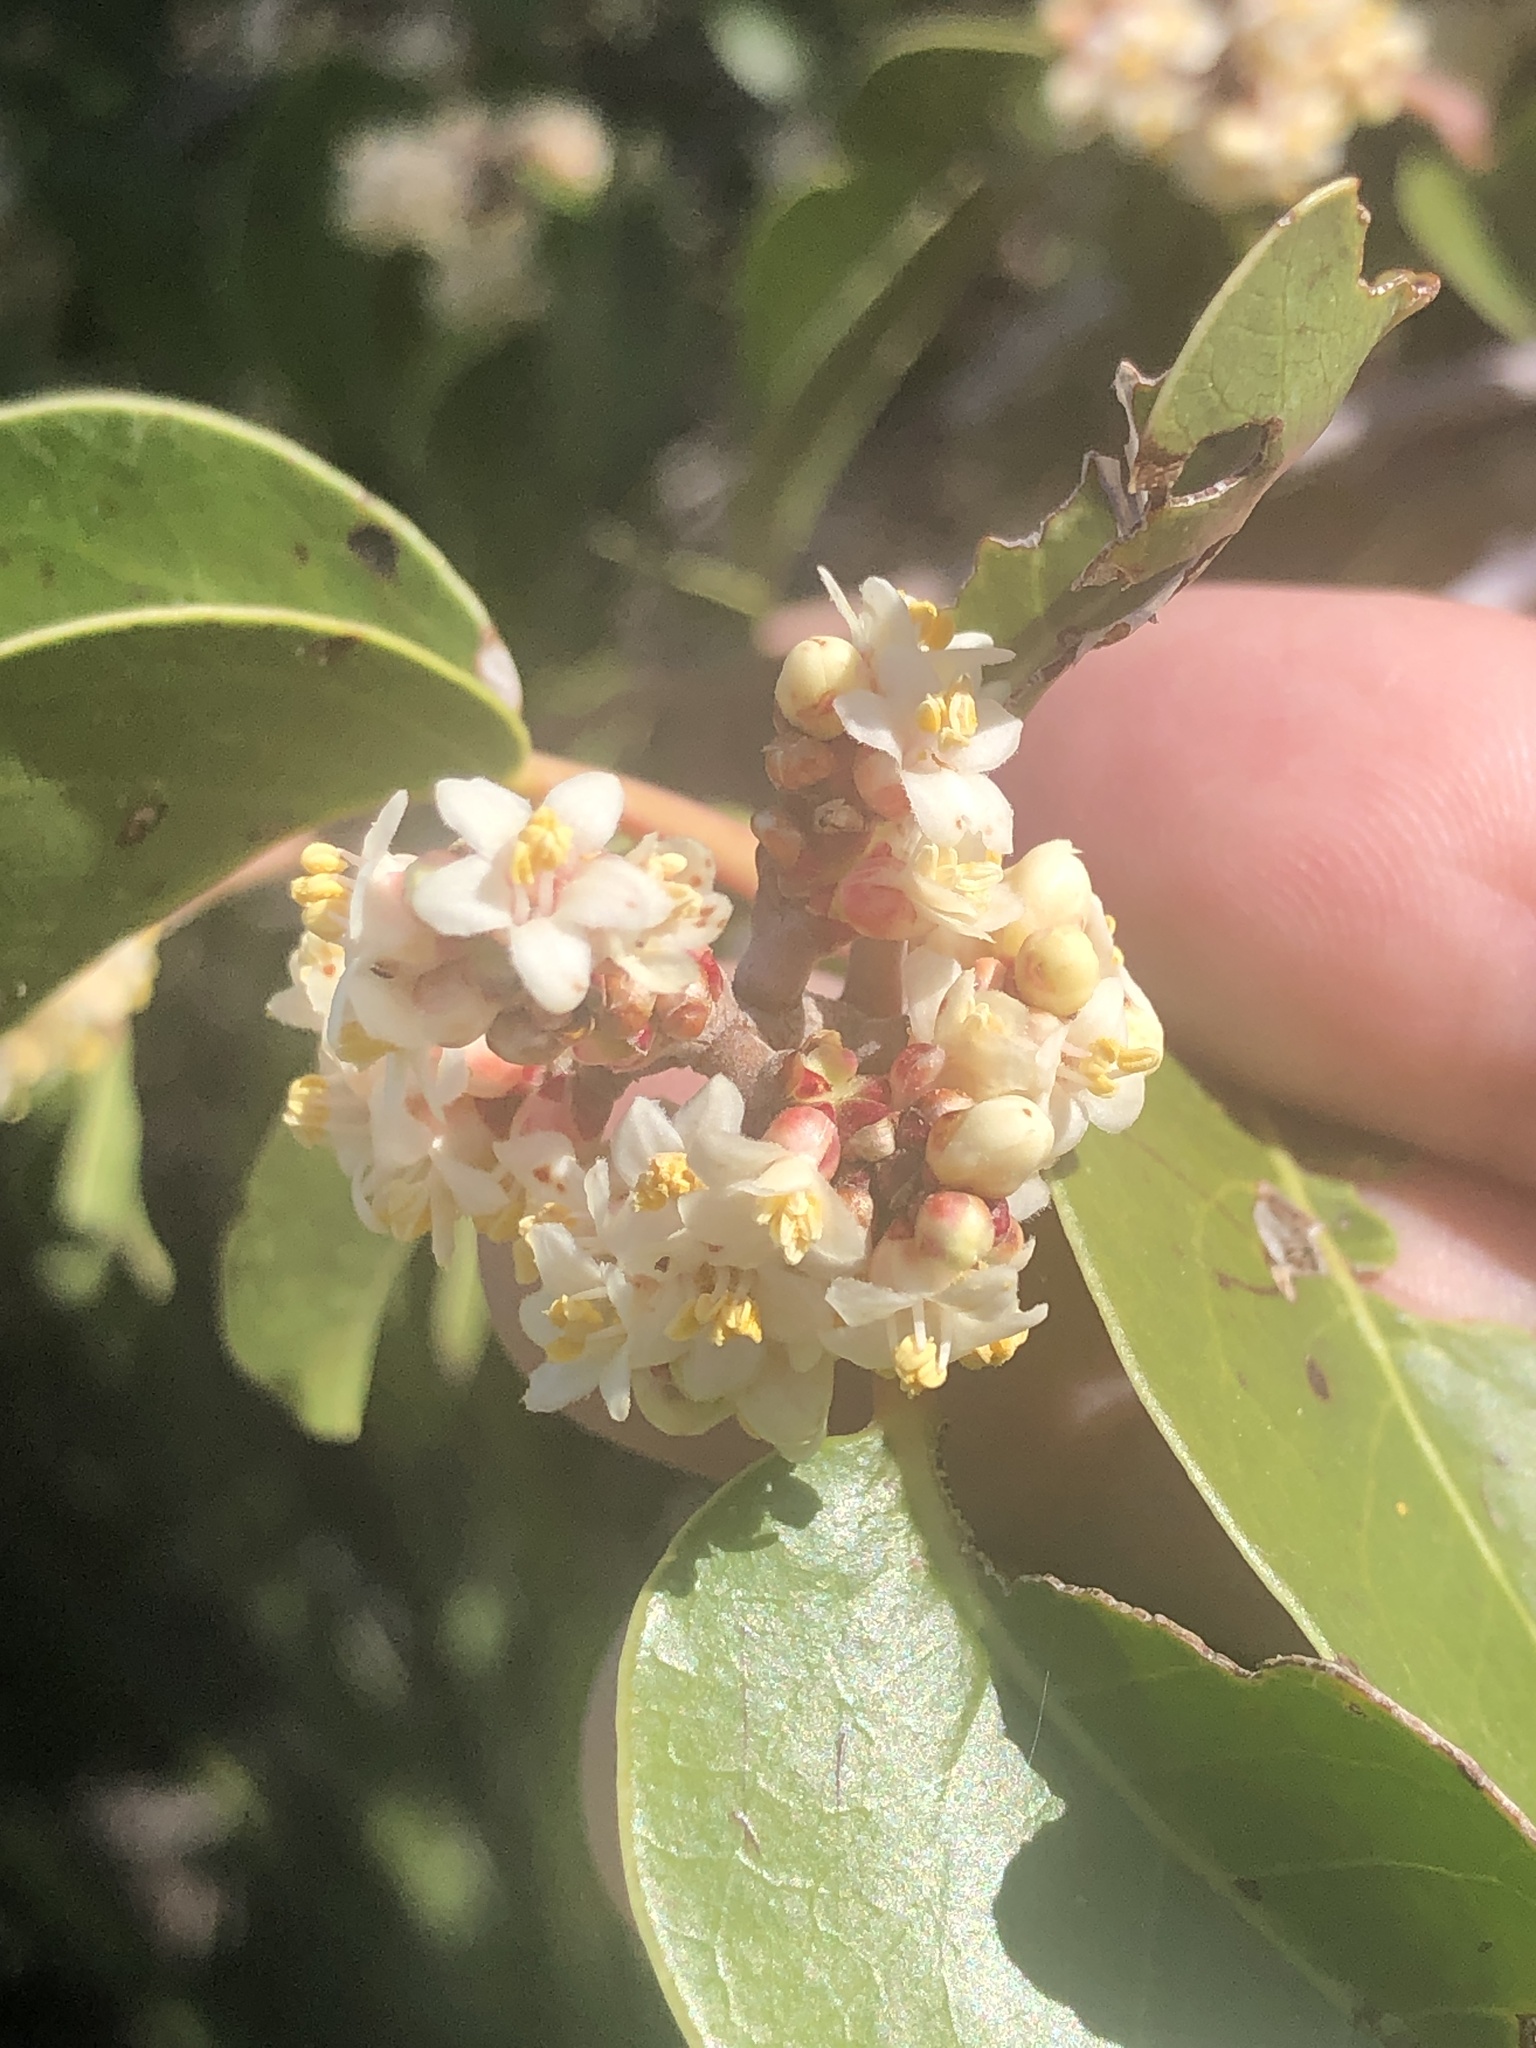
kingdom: Plantae
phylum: Tracheophyta
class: Magnoliopsida
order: Sapindales
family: Anacardiaceae
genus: Rhus
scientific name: Rhus ovata
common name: Sugar sumac
